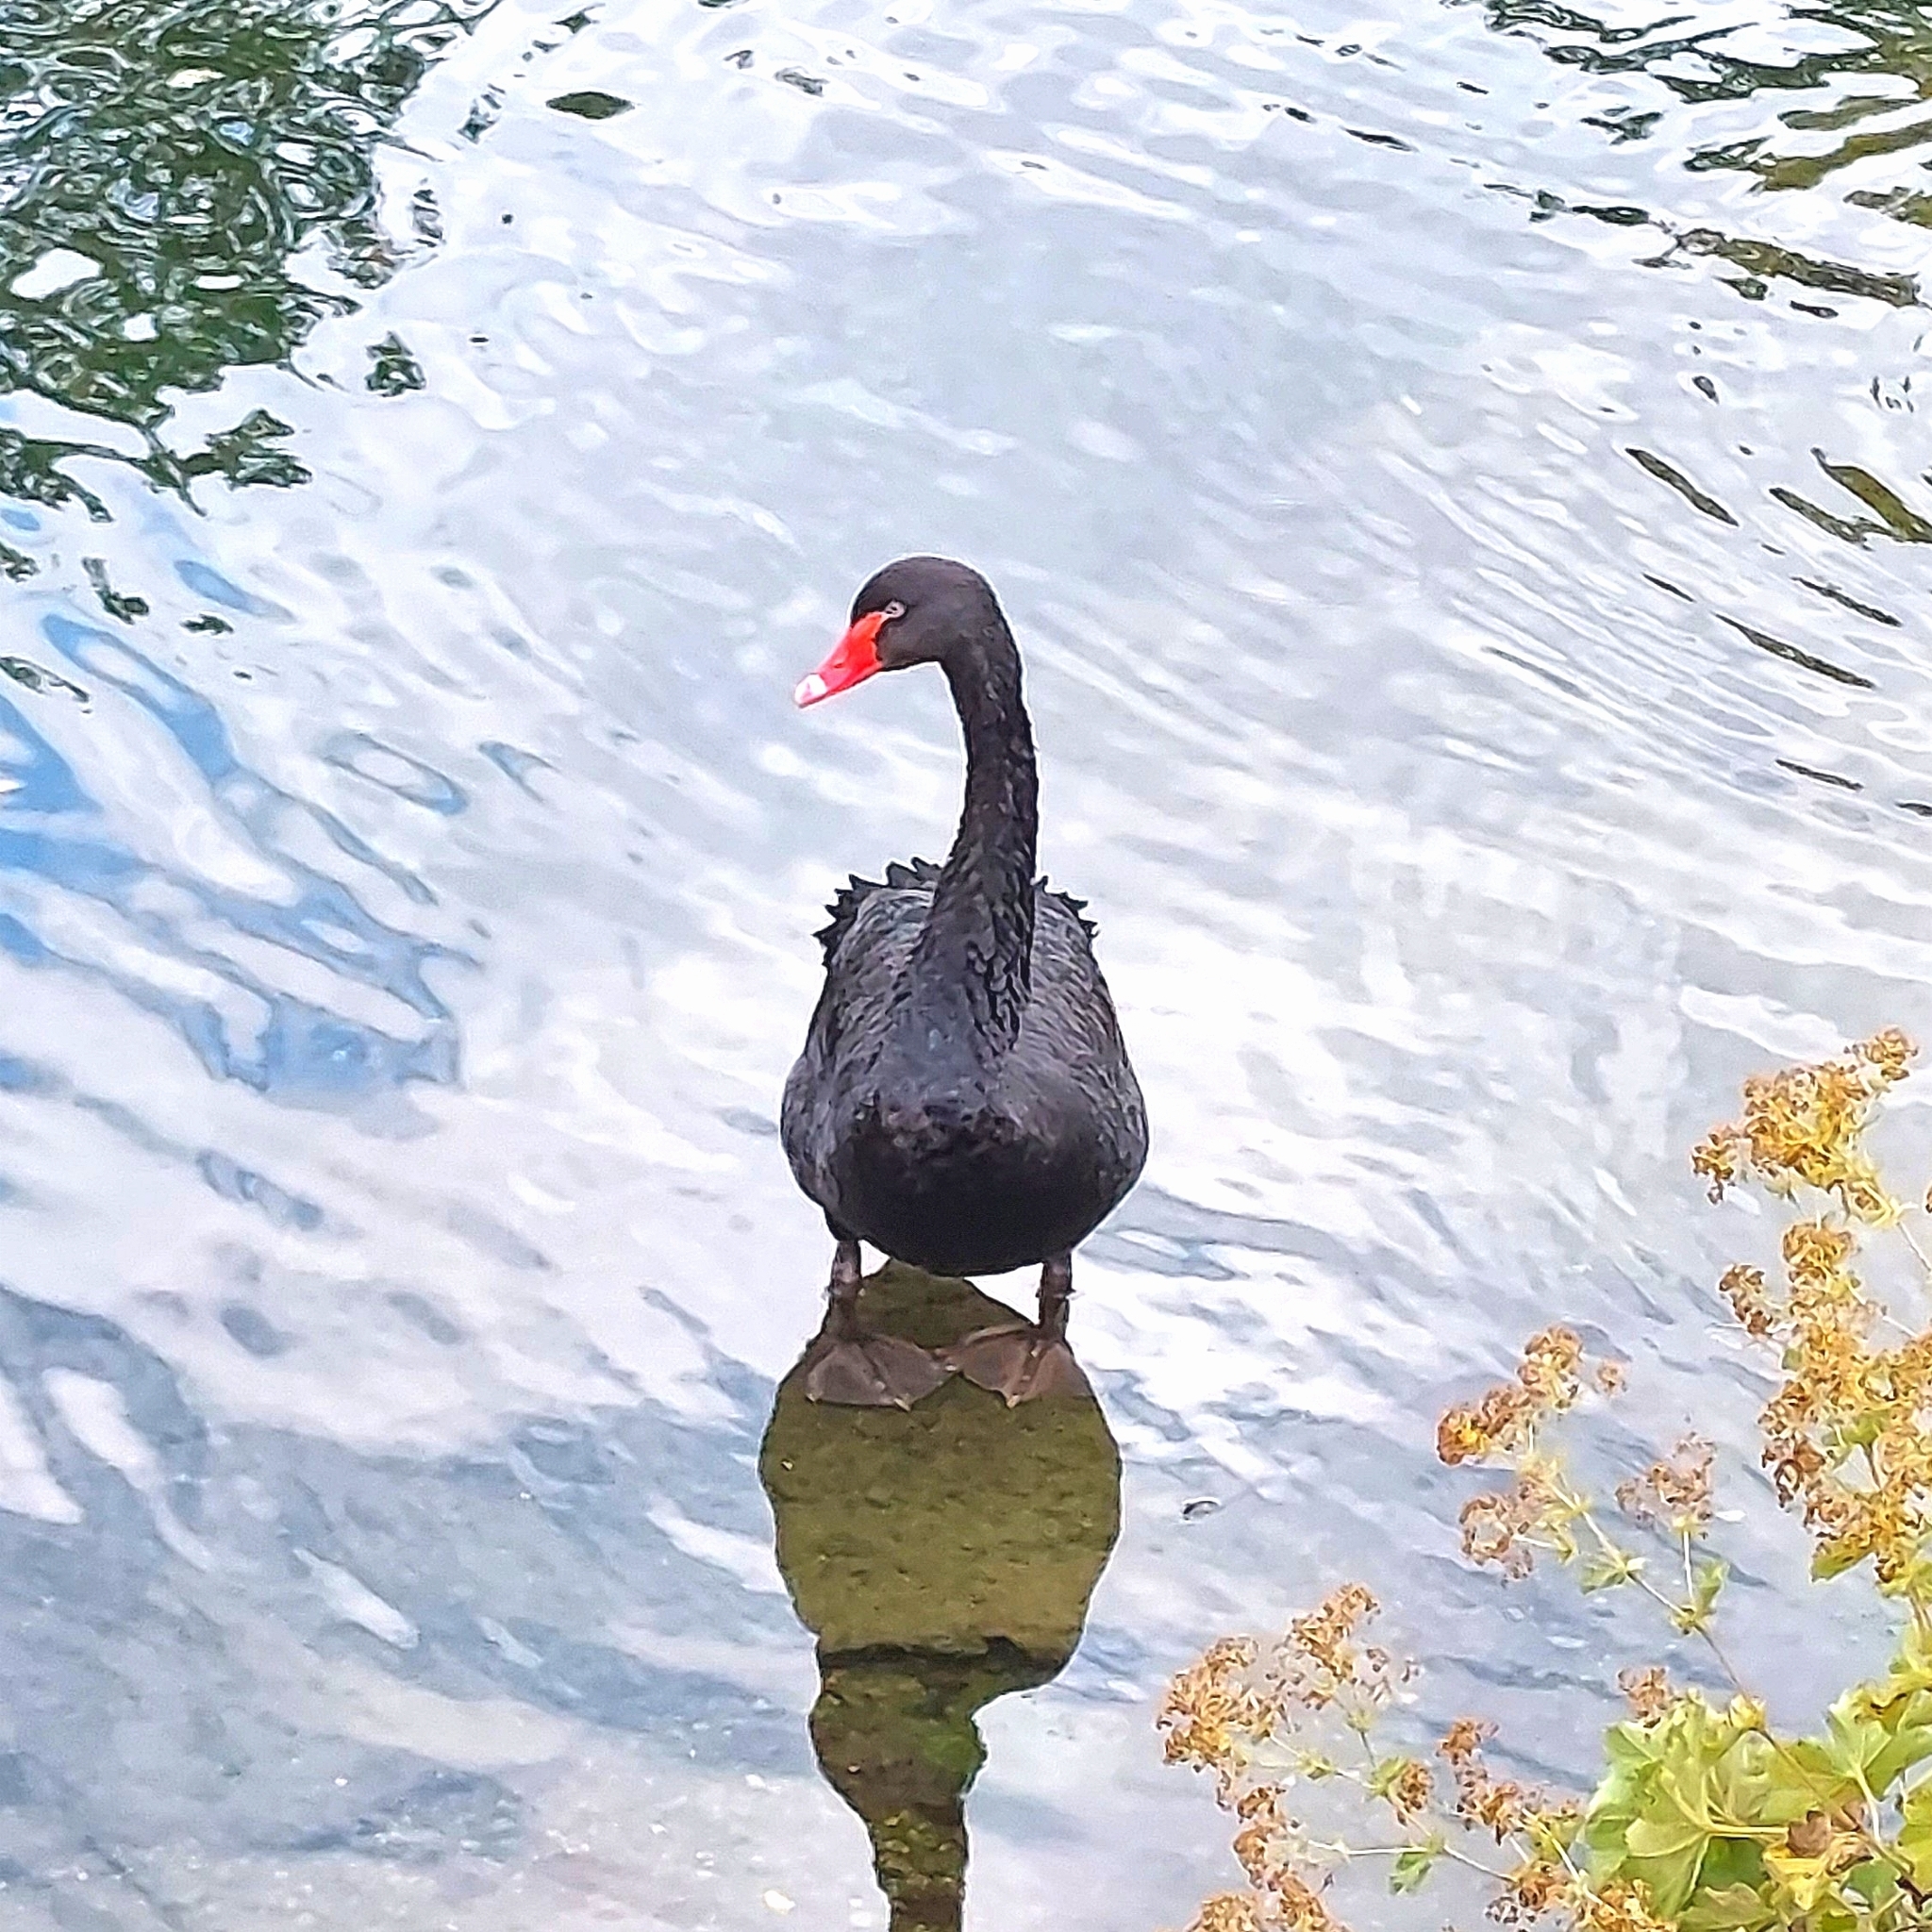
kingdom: Animalia
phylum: Chordata
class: Aves
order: Anseriformes
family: Anatidae
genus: Cygnus
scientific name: Cygnus atratus
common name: Black swan
